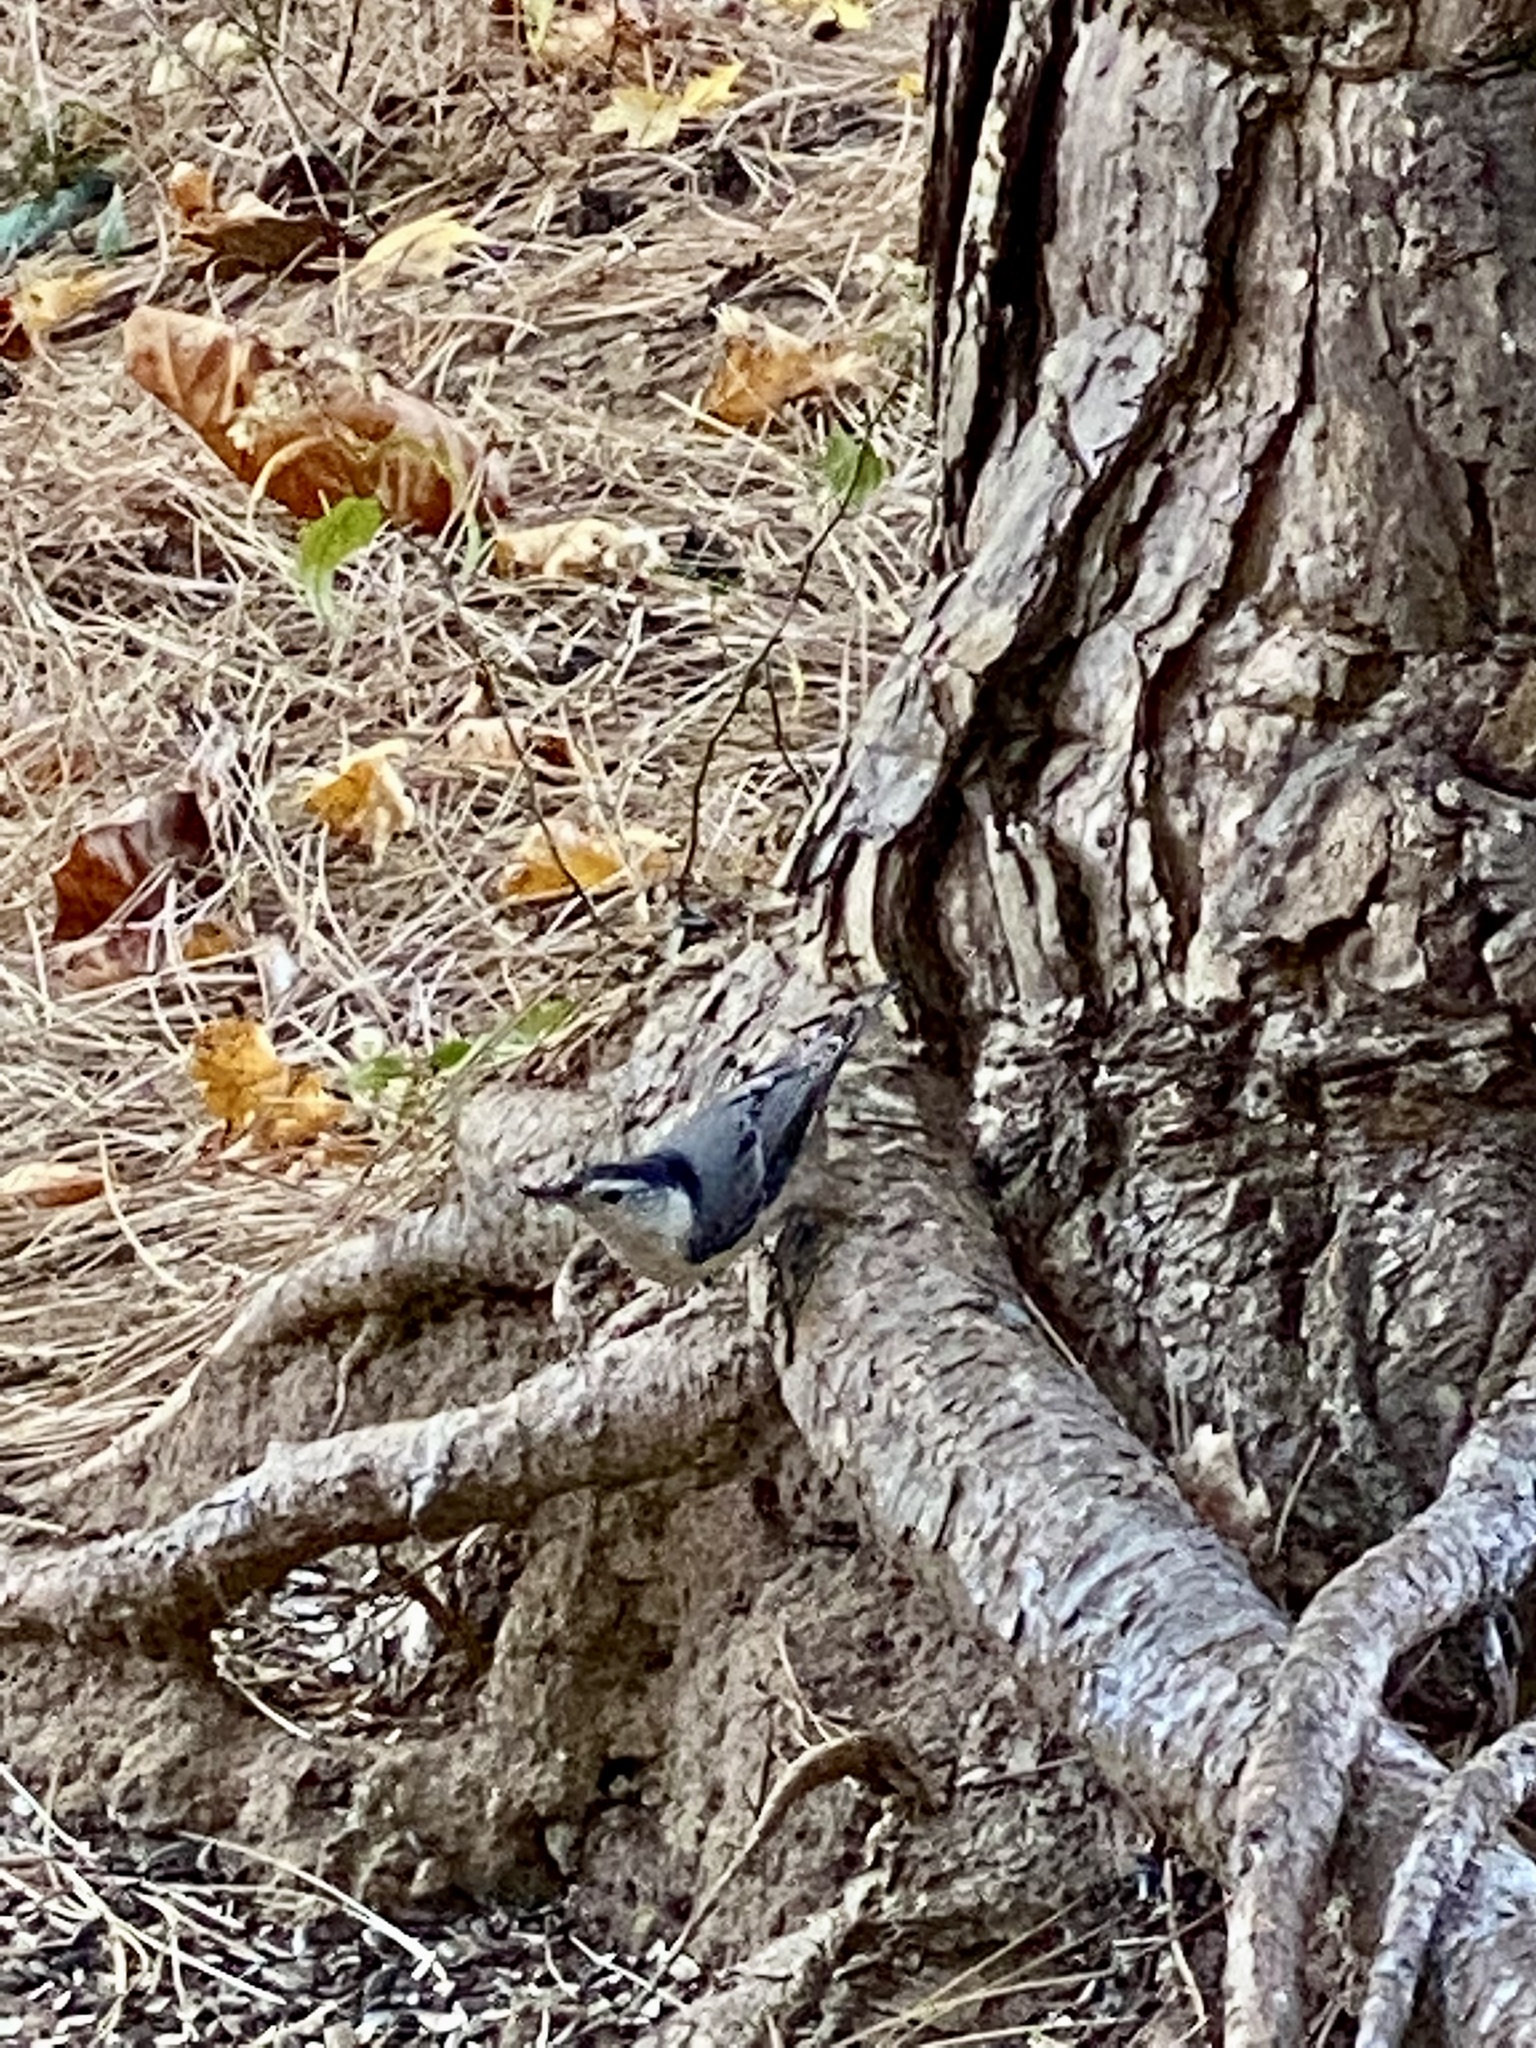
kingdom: Animalia
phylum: Chordata
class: Aves
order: Passeriformes
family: Sittidae
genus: Sitta
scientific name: Sitta carolinensis
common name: White-breasted nuthatch
